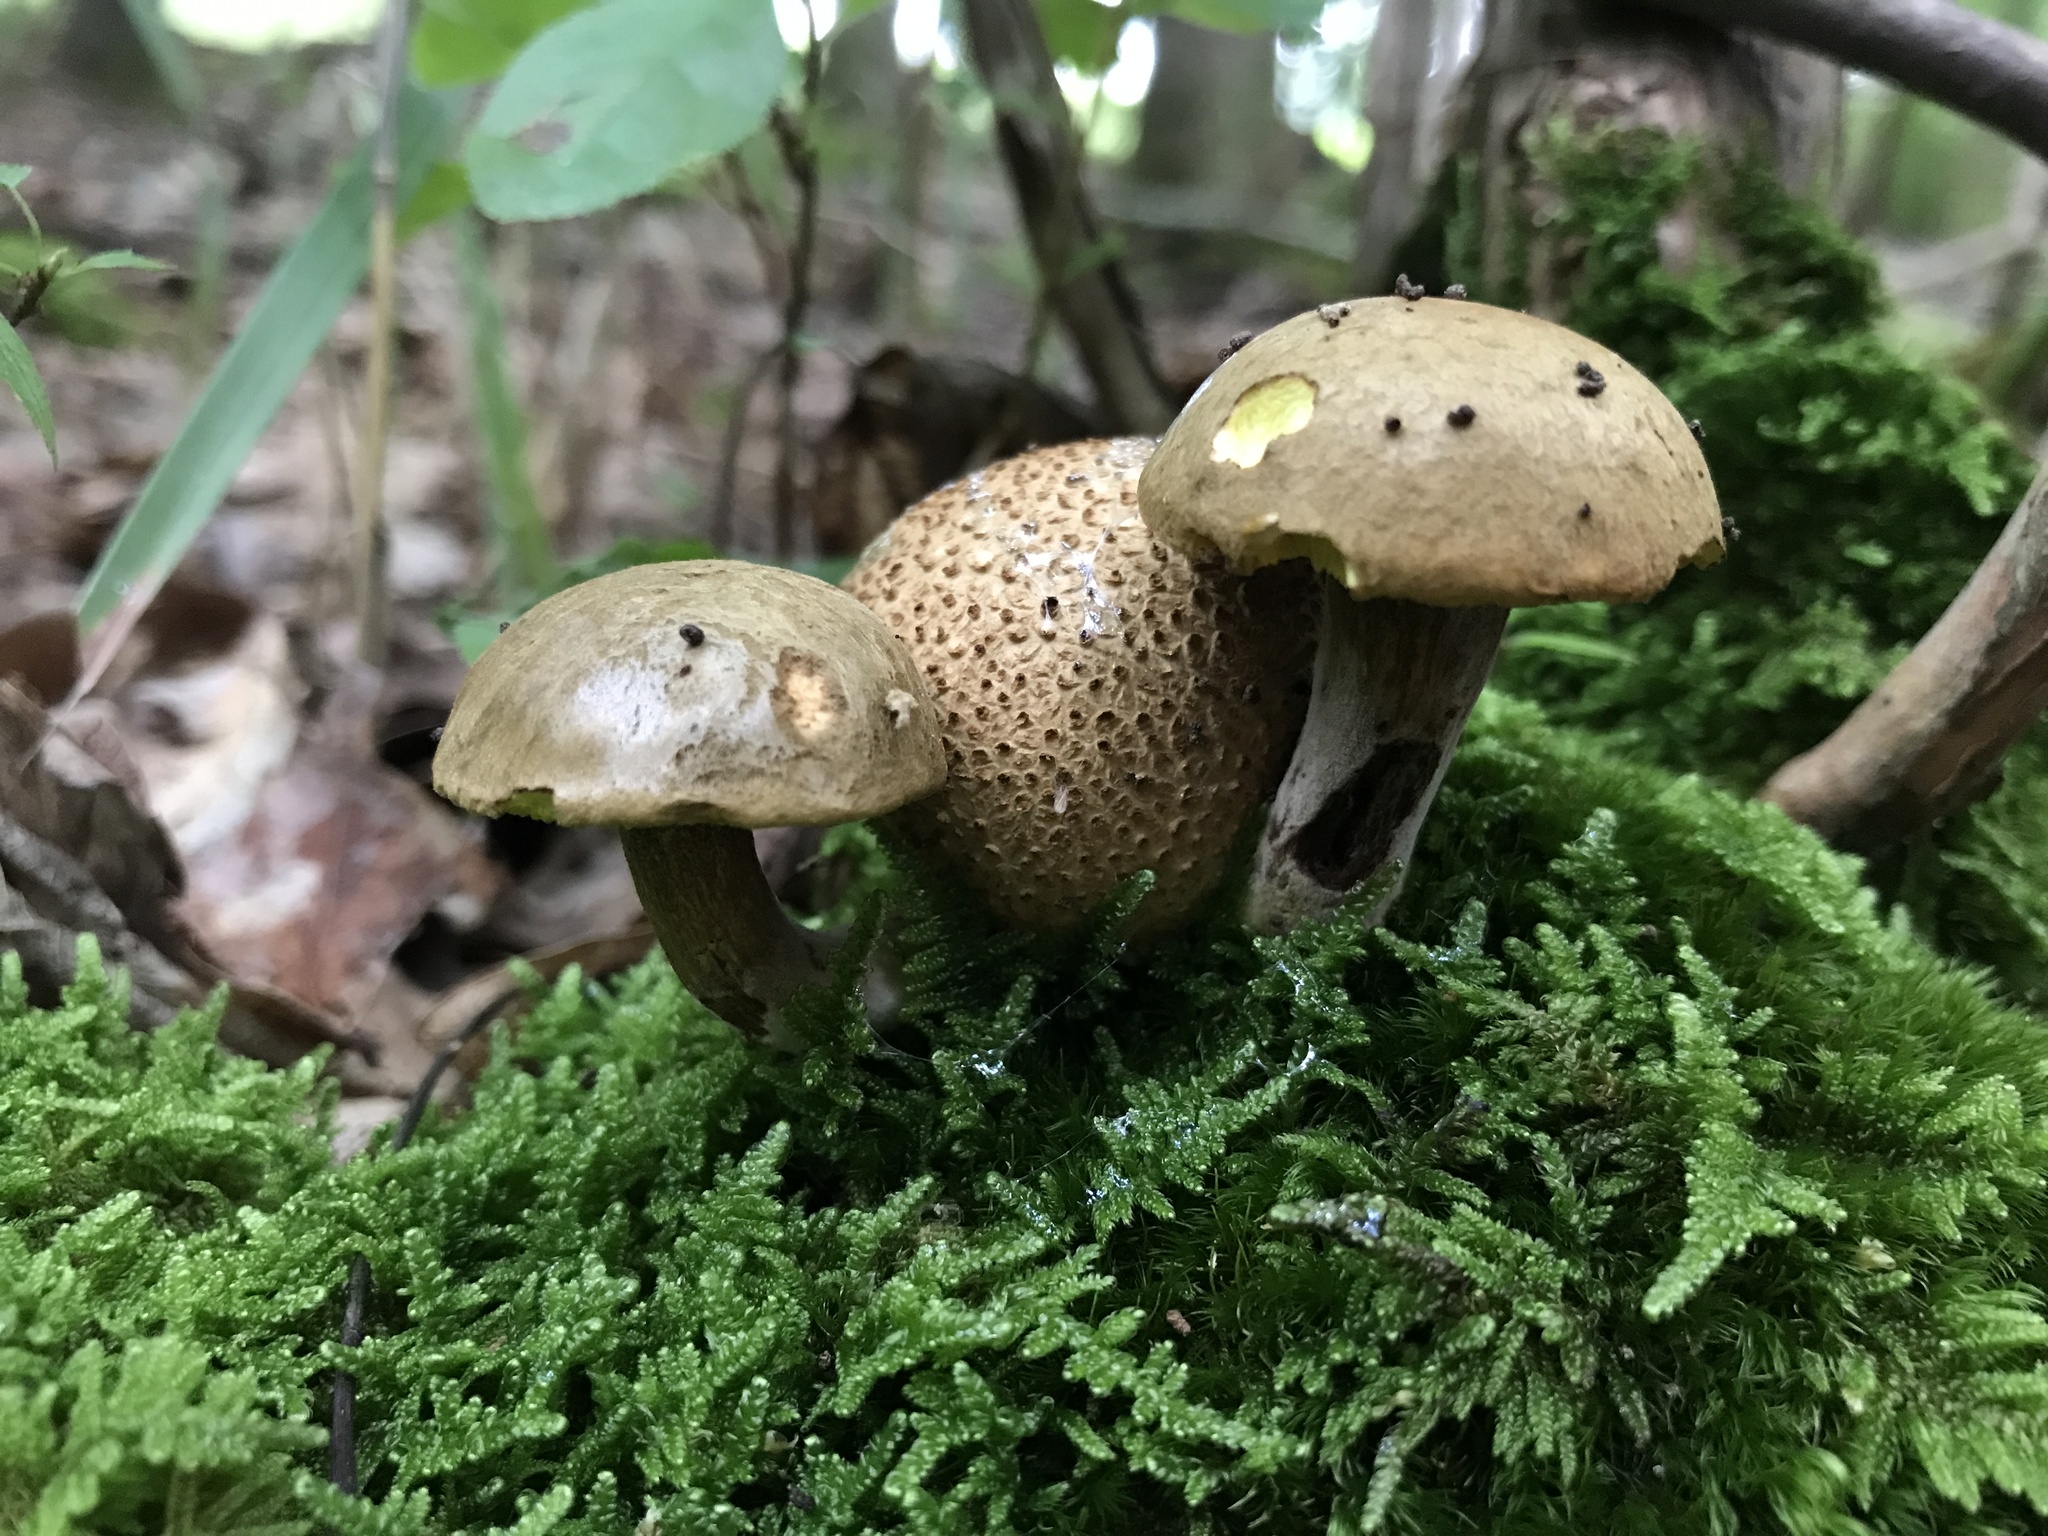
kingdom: Fungi
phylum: Basidiomycota
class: Agaricomycetes
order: Boletales
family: Boletaceae
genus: Pseudoboletus
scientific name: Pseudoboletus parasiticus
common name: Parasitic bolete
